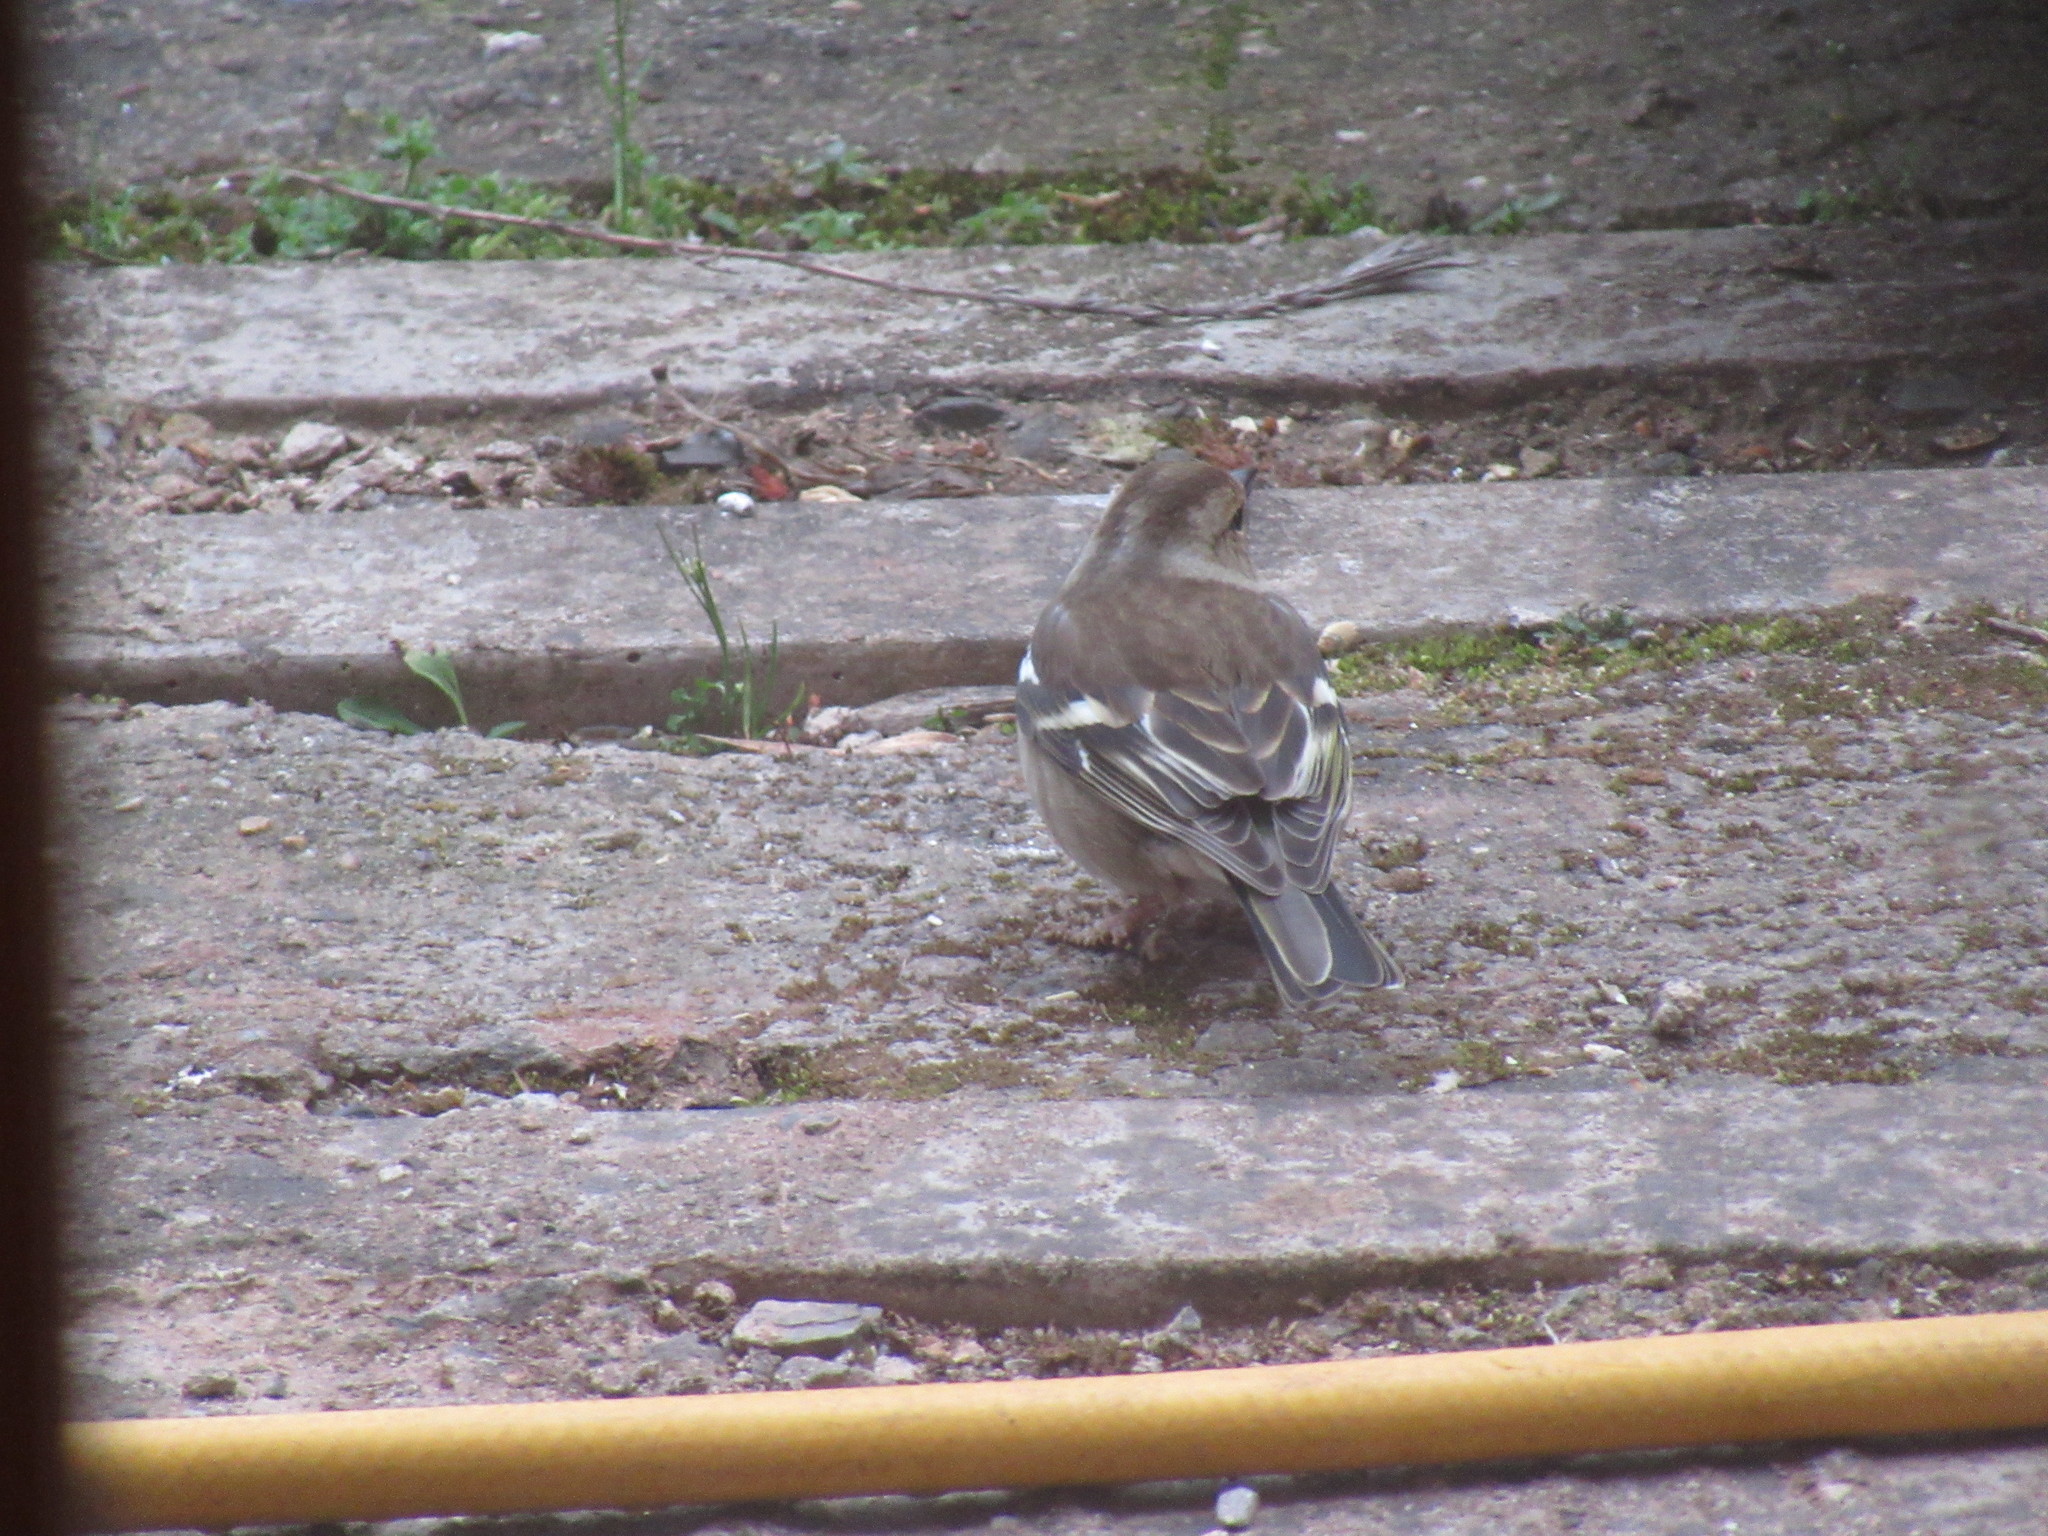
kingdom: Animalia
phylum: Chordata
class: Aves
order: Passeriformes
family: Fringillidae
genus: Fringilla
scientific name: Fringilla coelebs
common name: Common chaffinch
